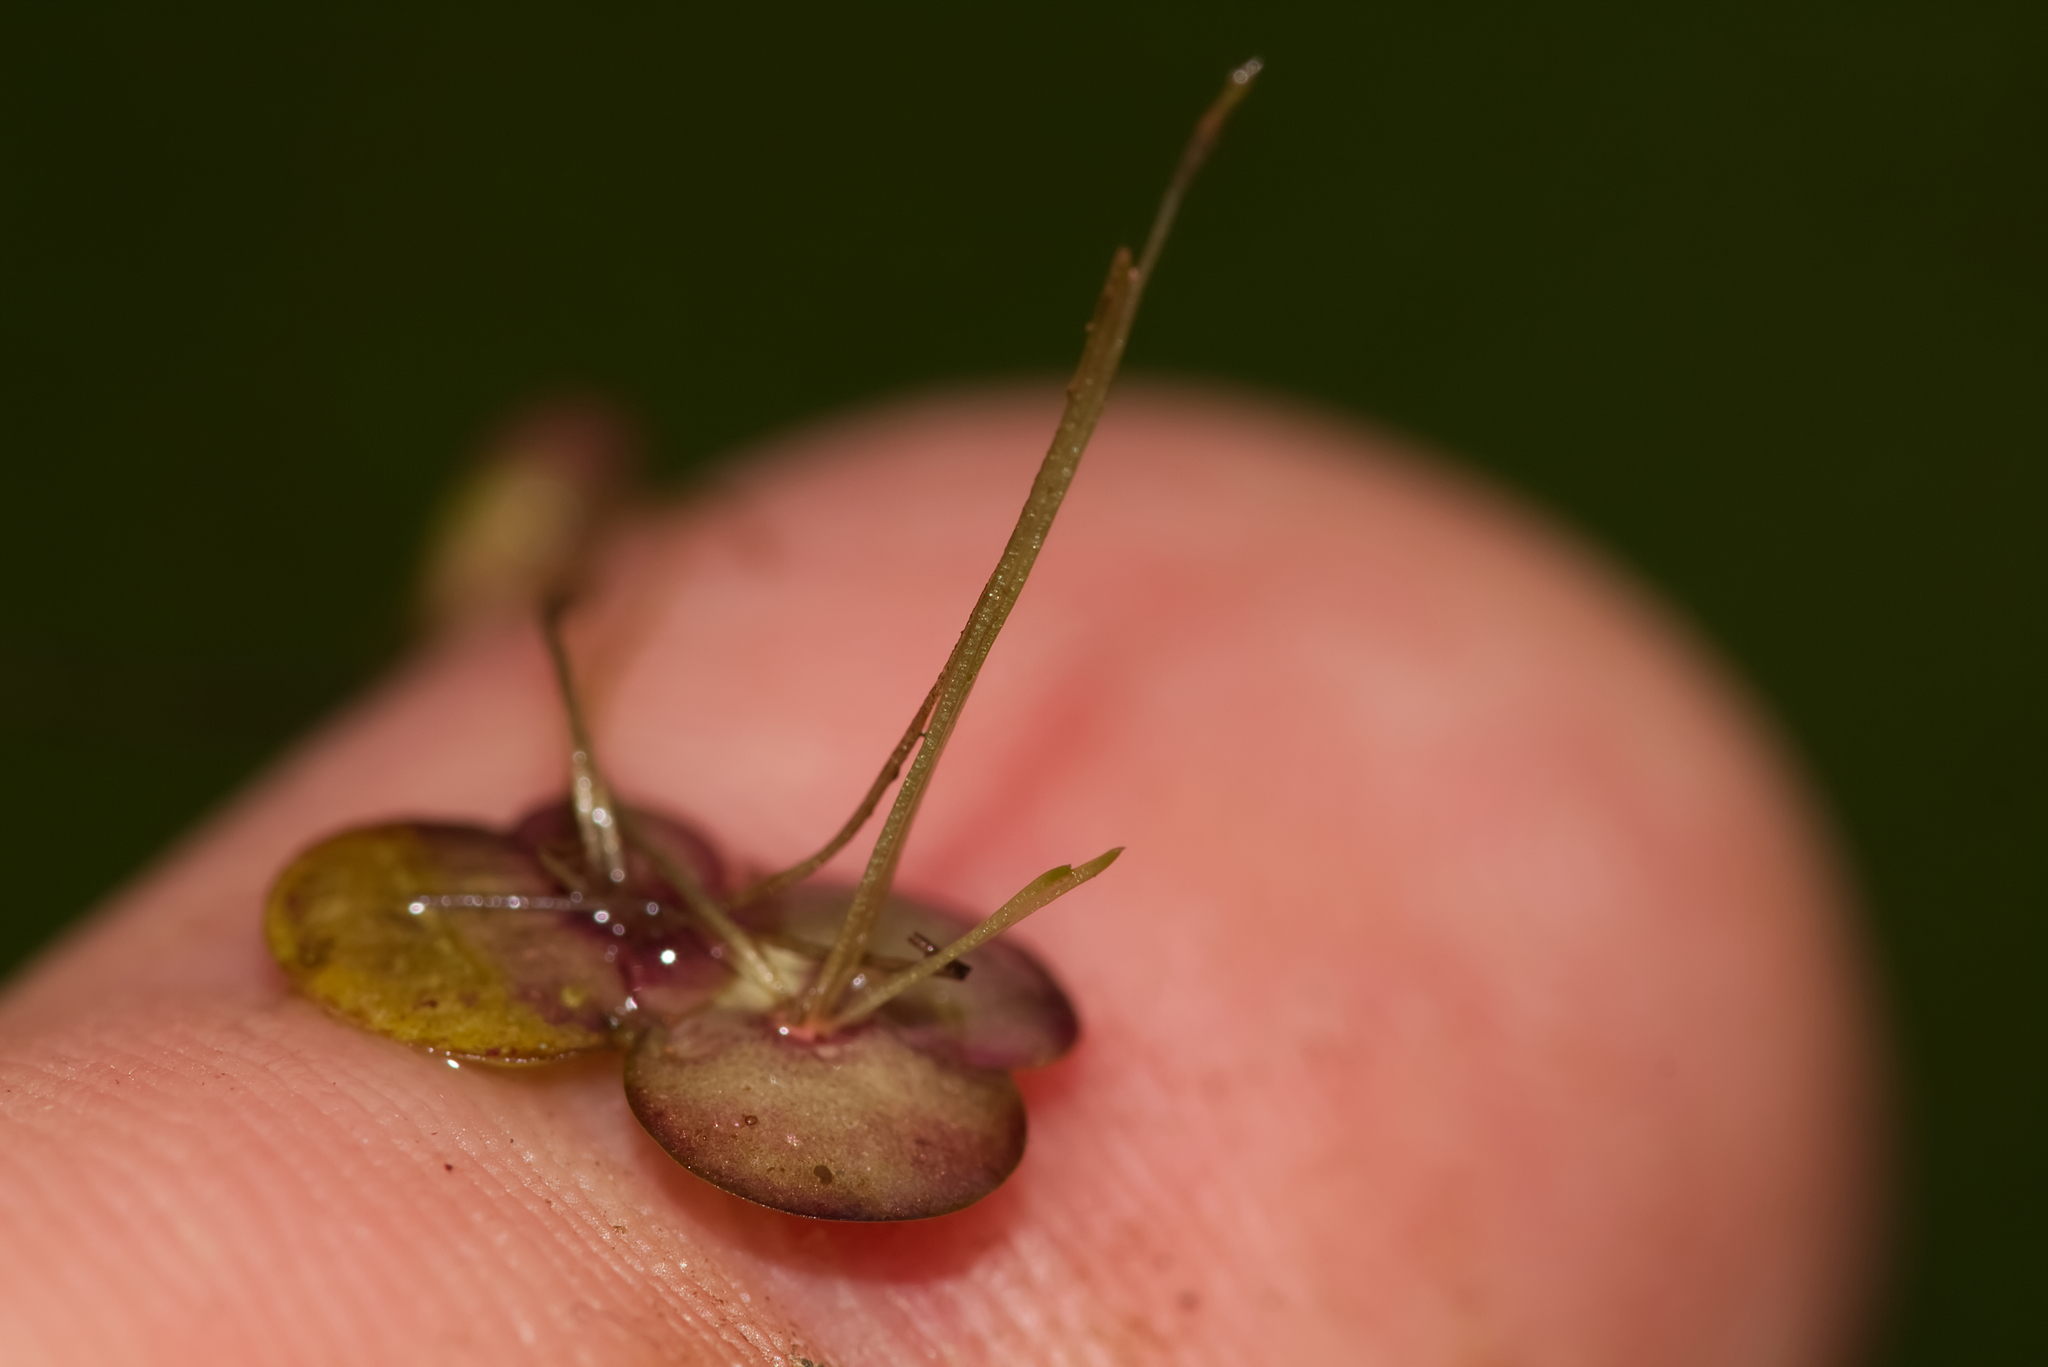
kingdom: Plantae
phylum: Tracheophyta
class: Liliopsida
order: Alismatales
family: Araceae
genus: Spirodela
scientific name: Spirodela polyrhiza
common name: Great duckweed
